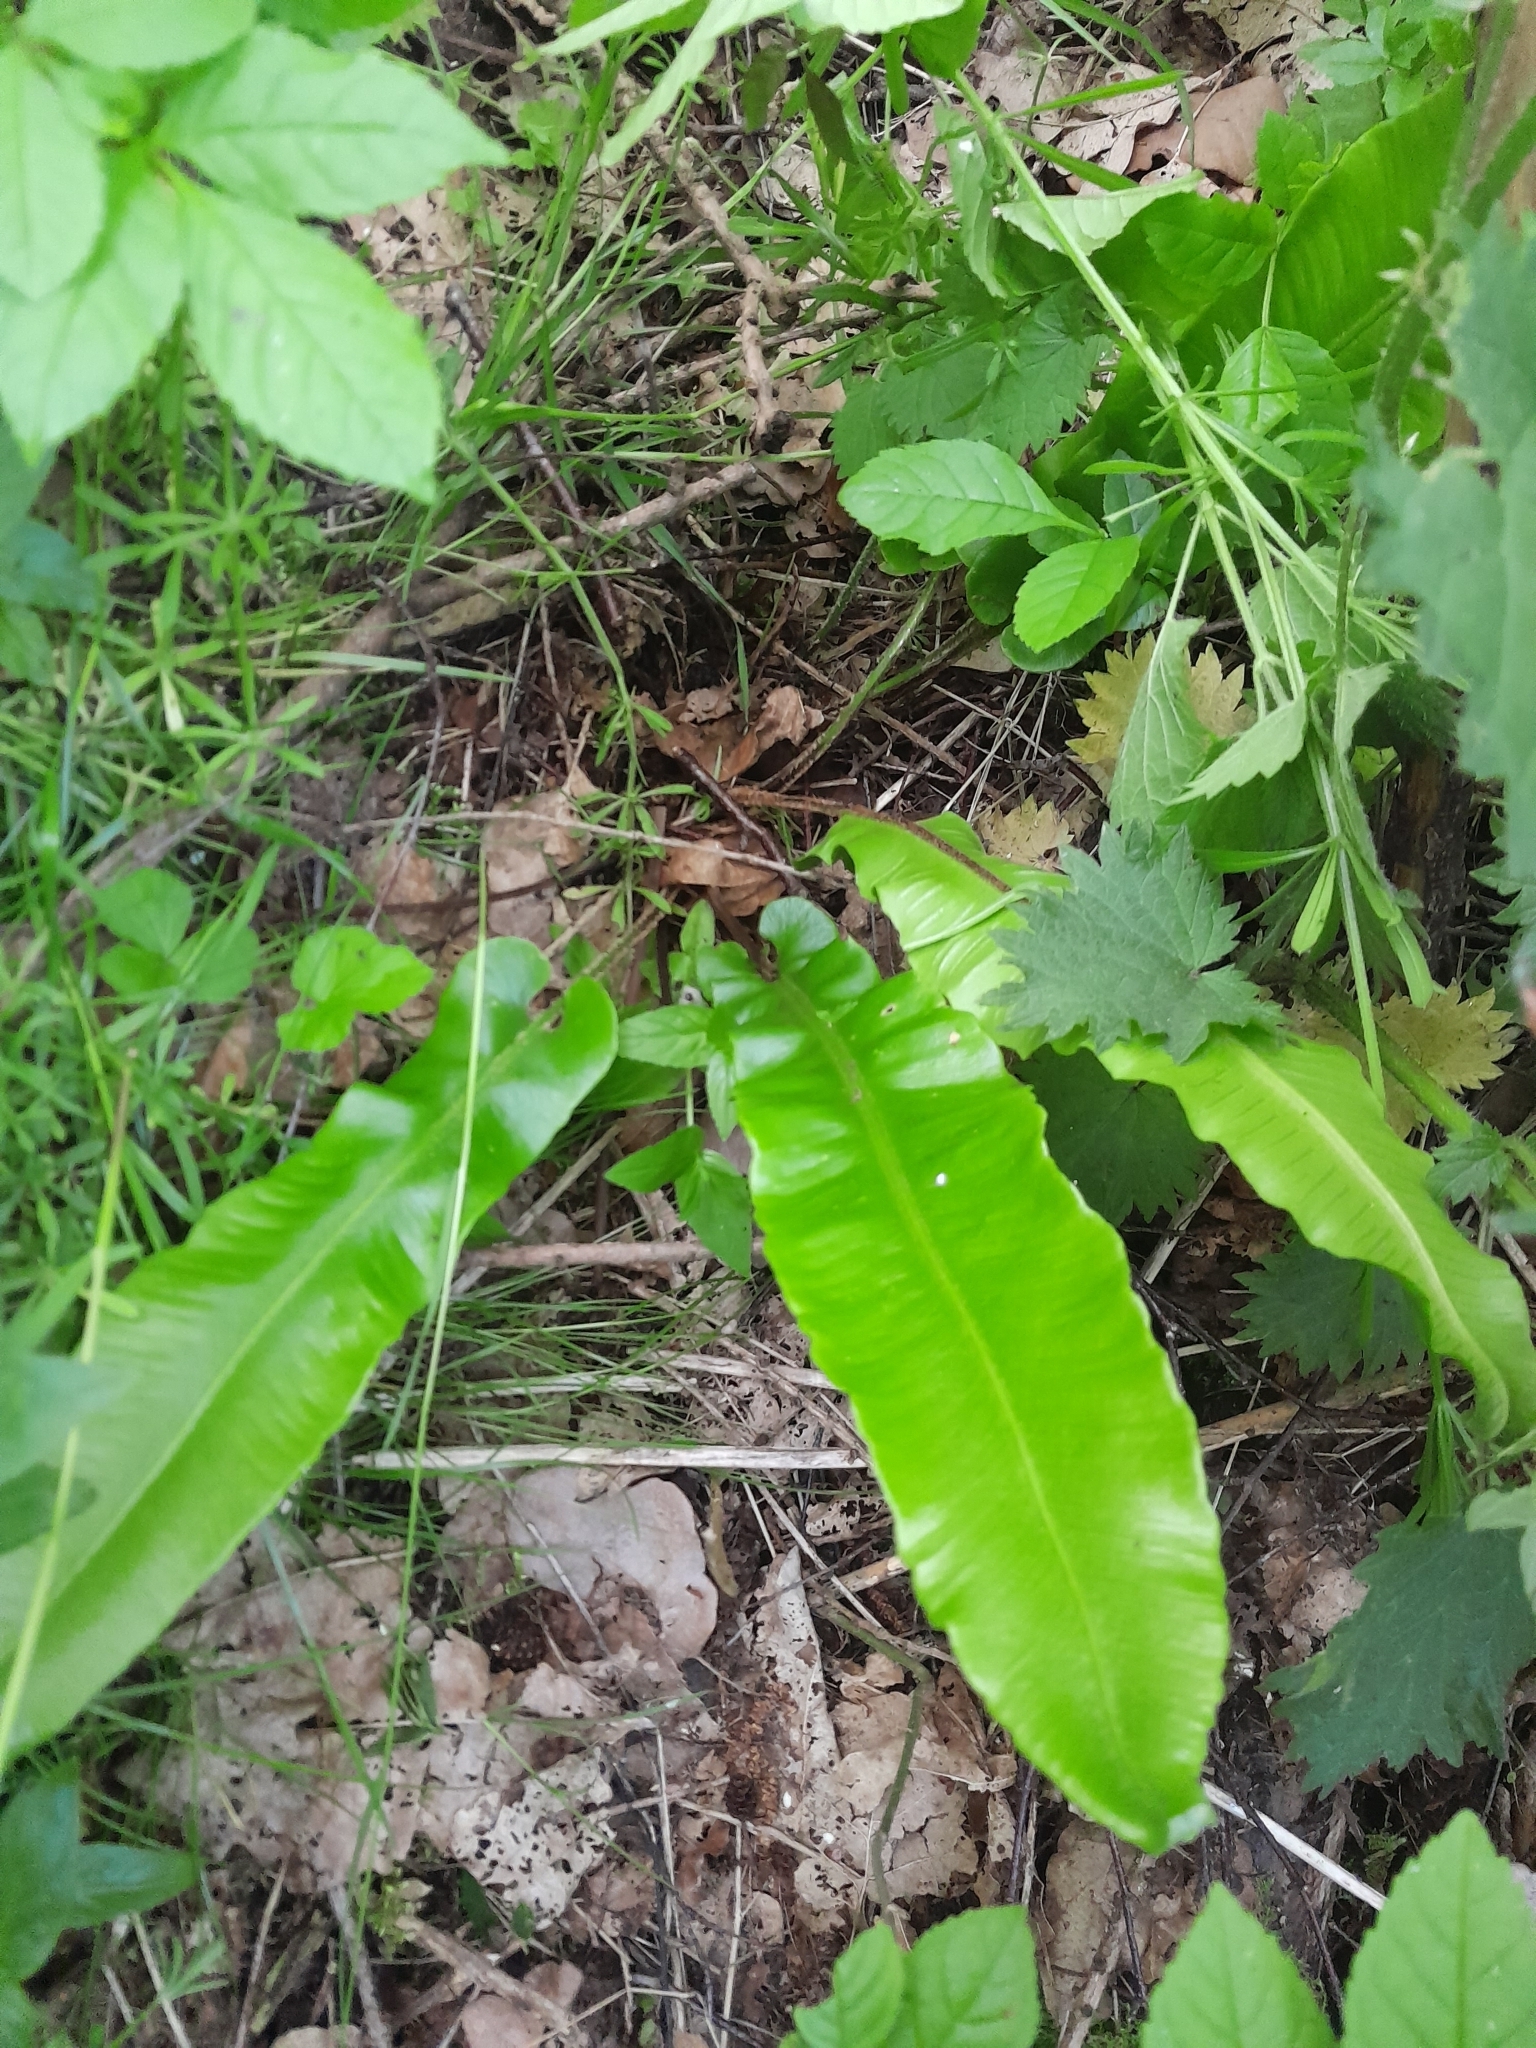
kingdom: Plantae
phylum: Tracheophyta
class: Polypodiopsida
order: Polypodiales
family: Aspleniaceae
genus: Asplenium
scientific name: Asplenium scolopendrium
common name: Hart's-tongue fern
